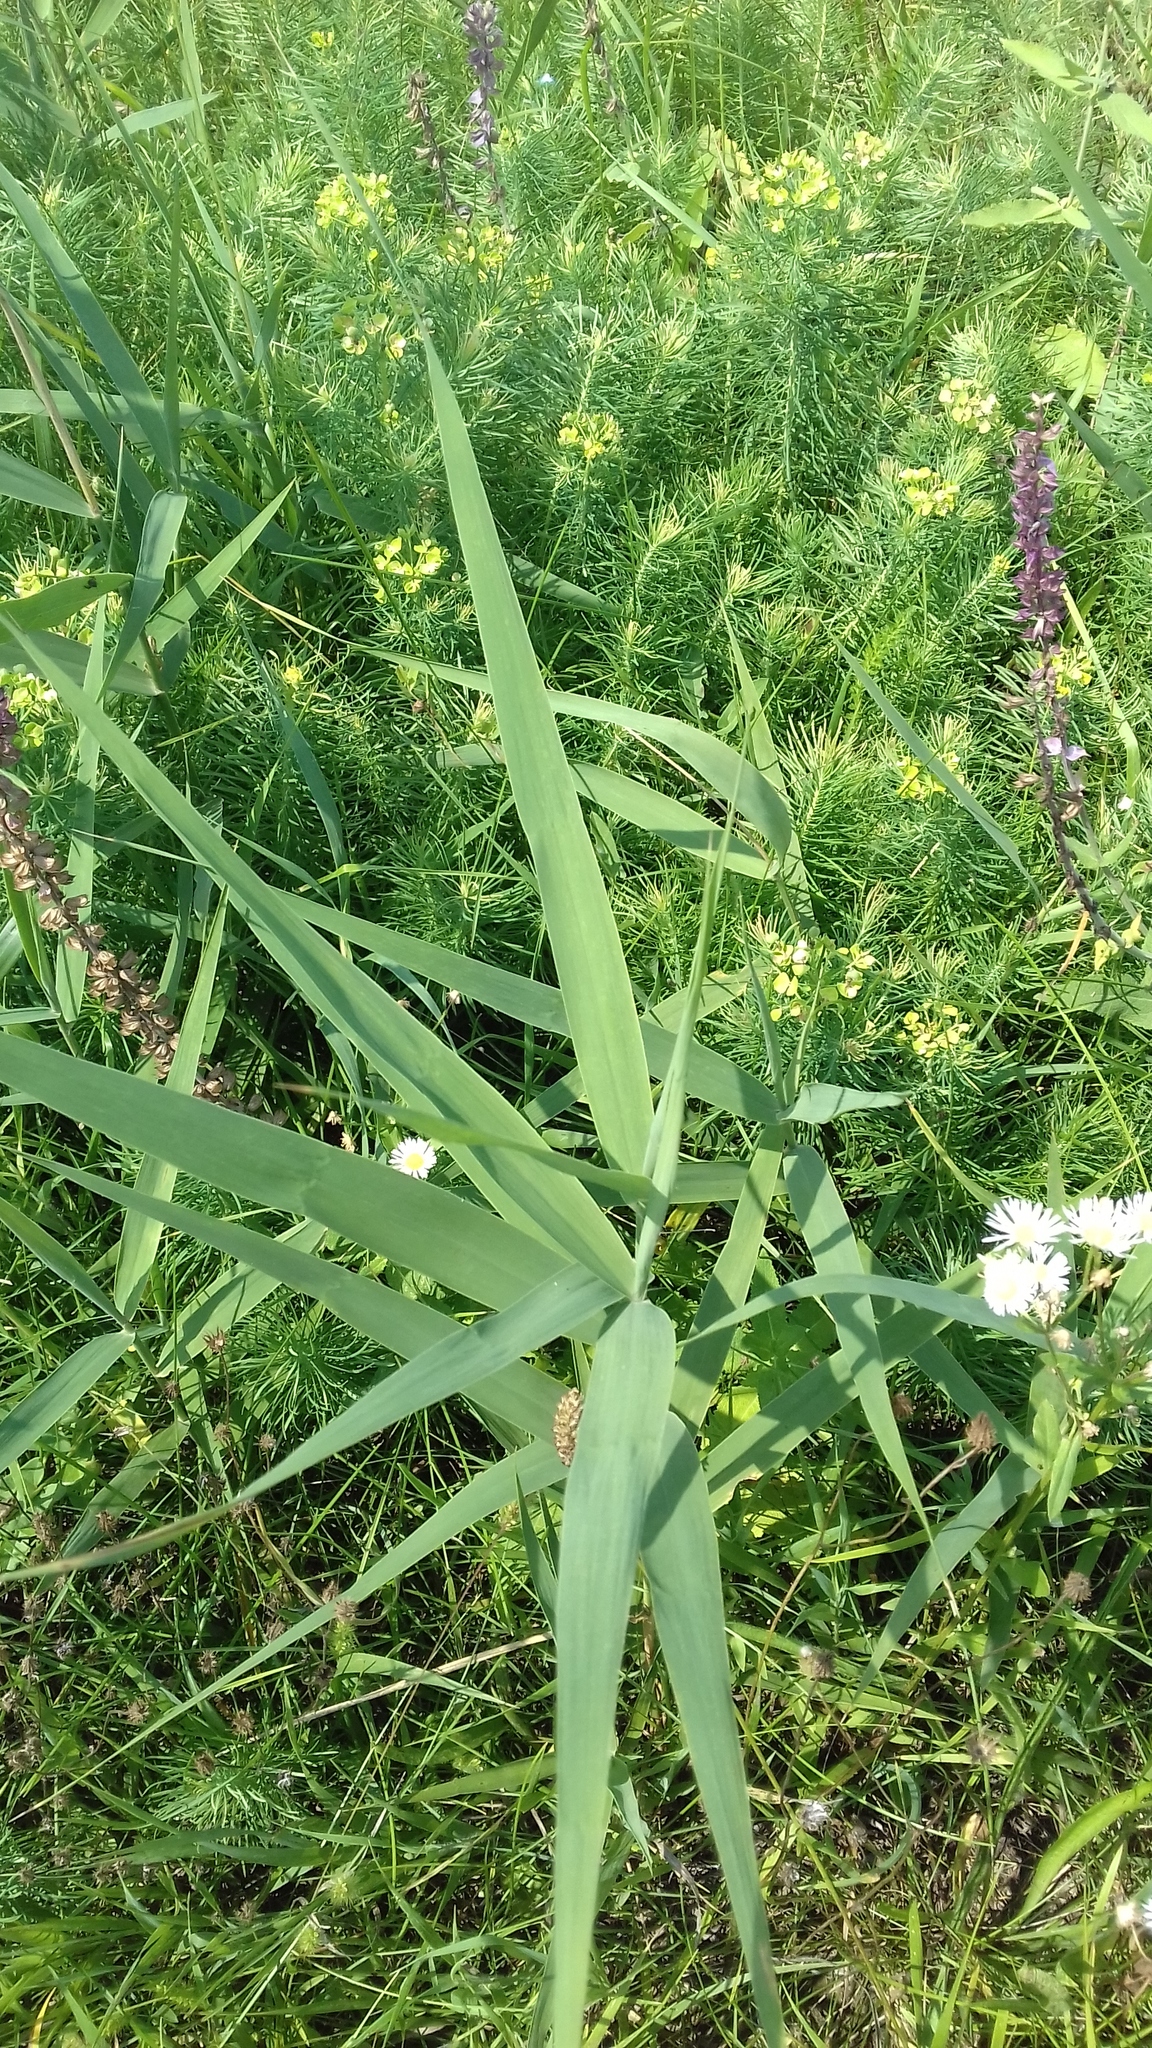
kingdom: Plantae
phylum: Tracheophyta
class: Liliopsida
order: Poales
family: Poaceae
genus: Phragmites
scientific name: Phragmites australis
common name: Common reed
